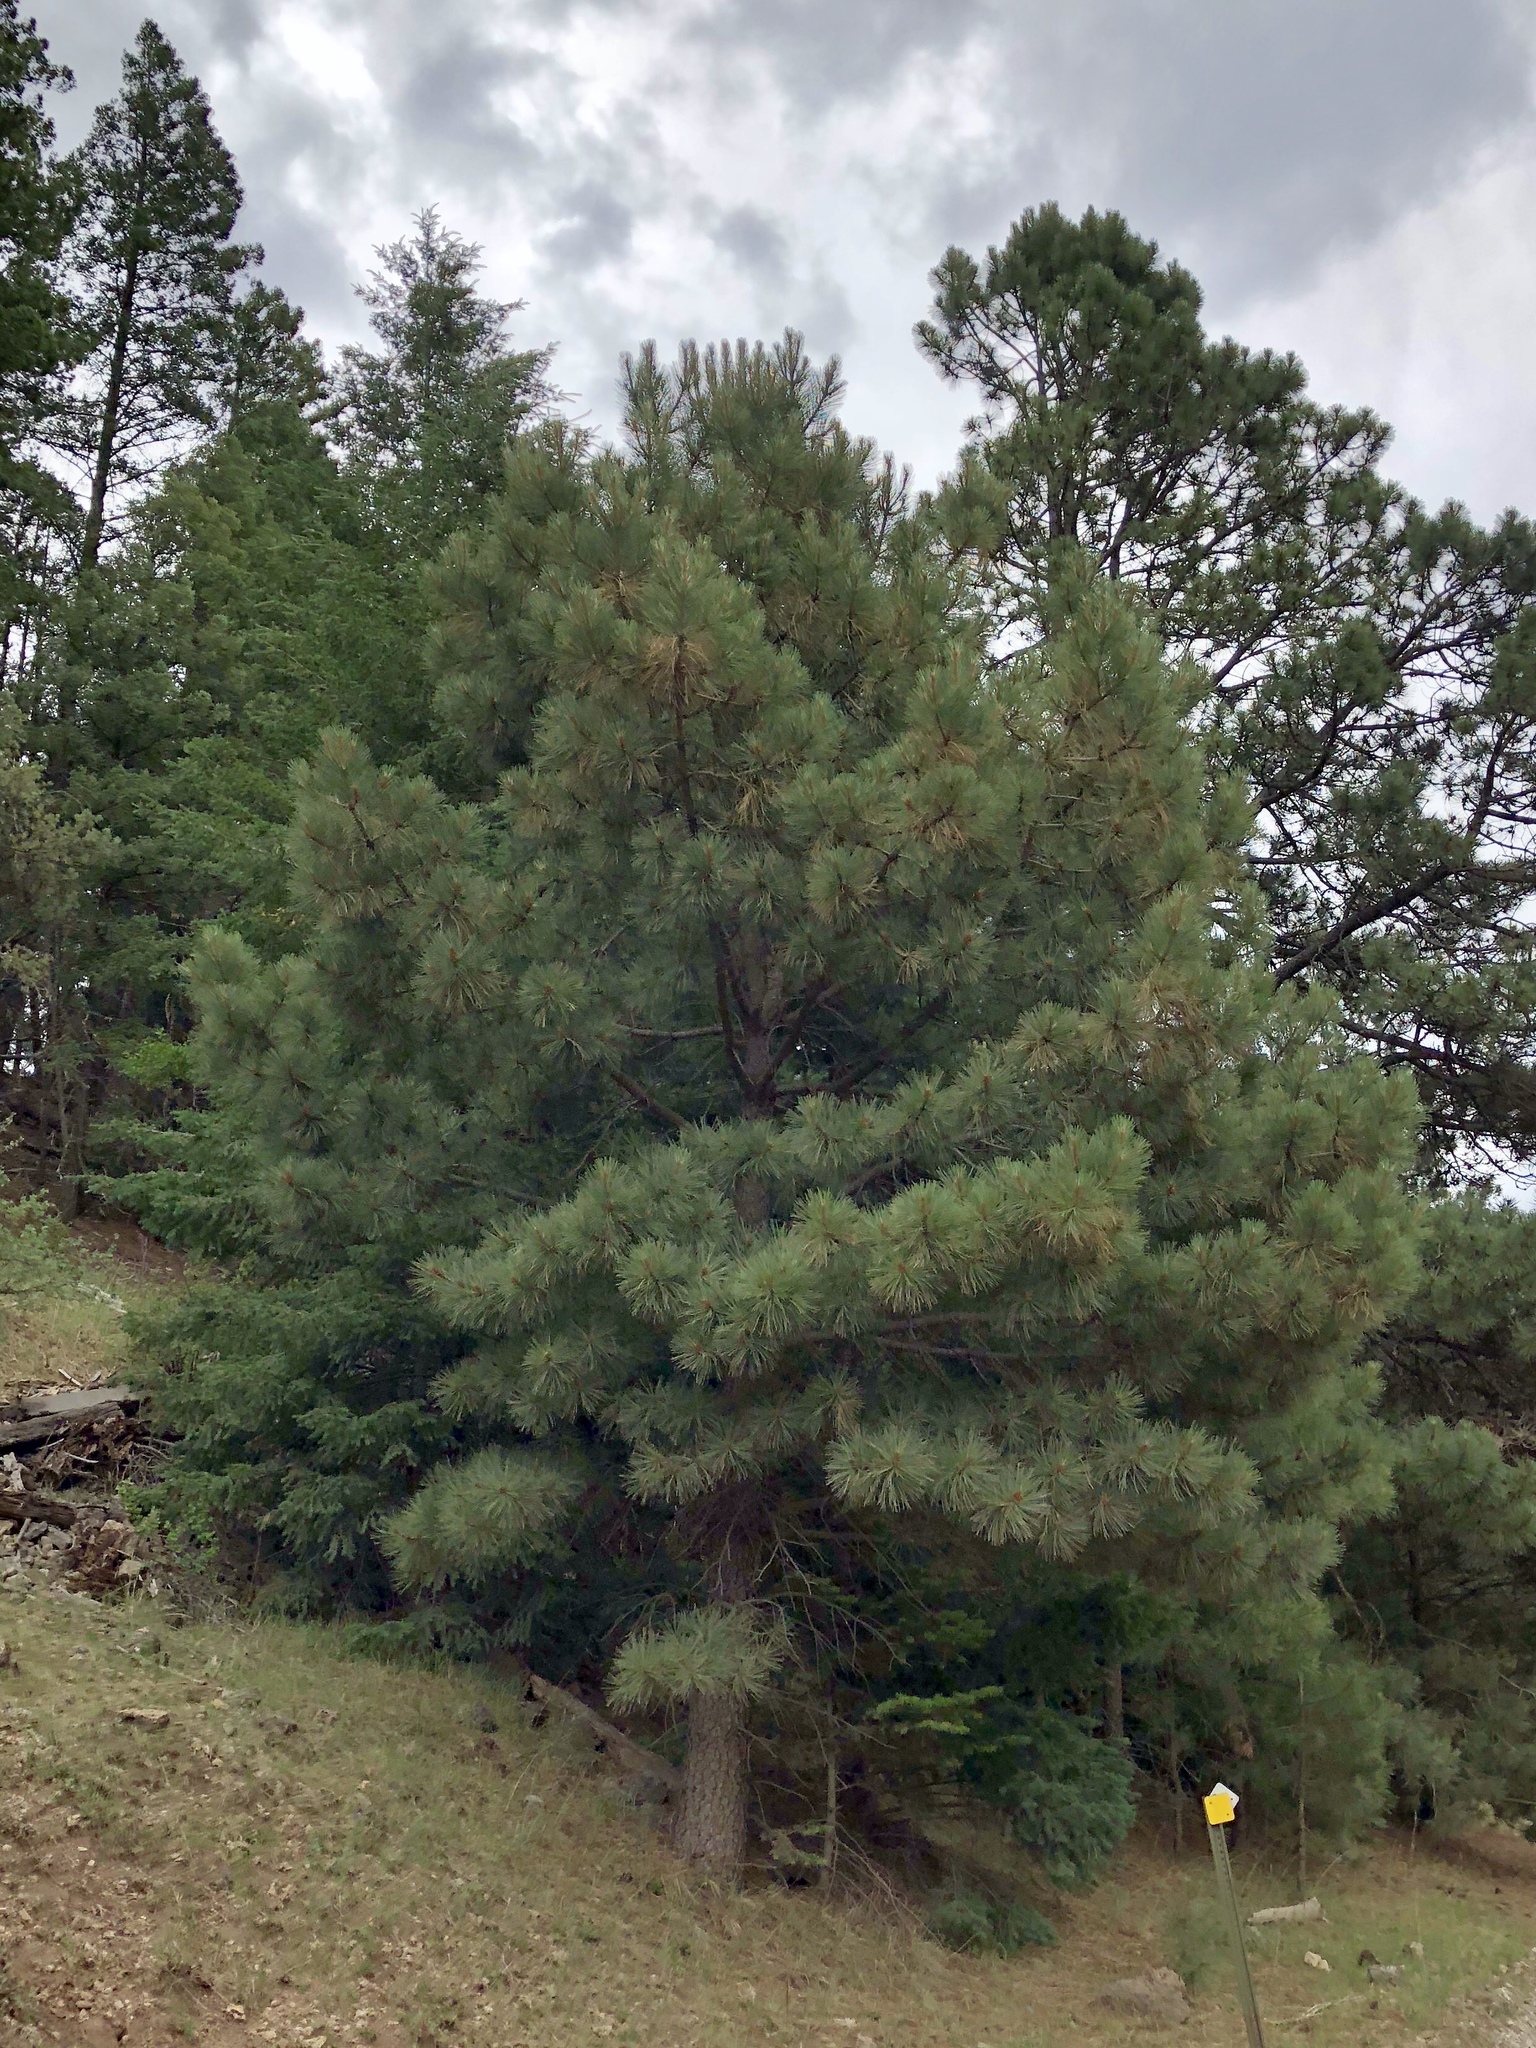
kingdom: Plantae
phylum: Tracheophyta
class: Pinopsida
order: Pinales
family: Pinaceae
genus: Pinus
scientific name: Pinus ponderosa
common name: Western yellow-pine
